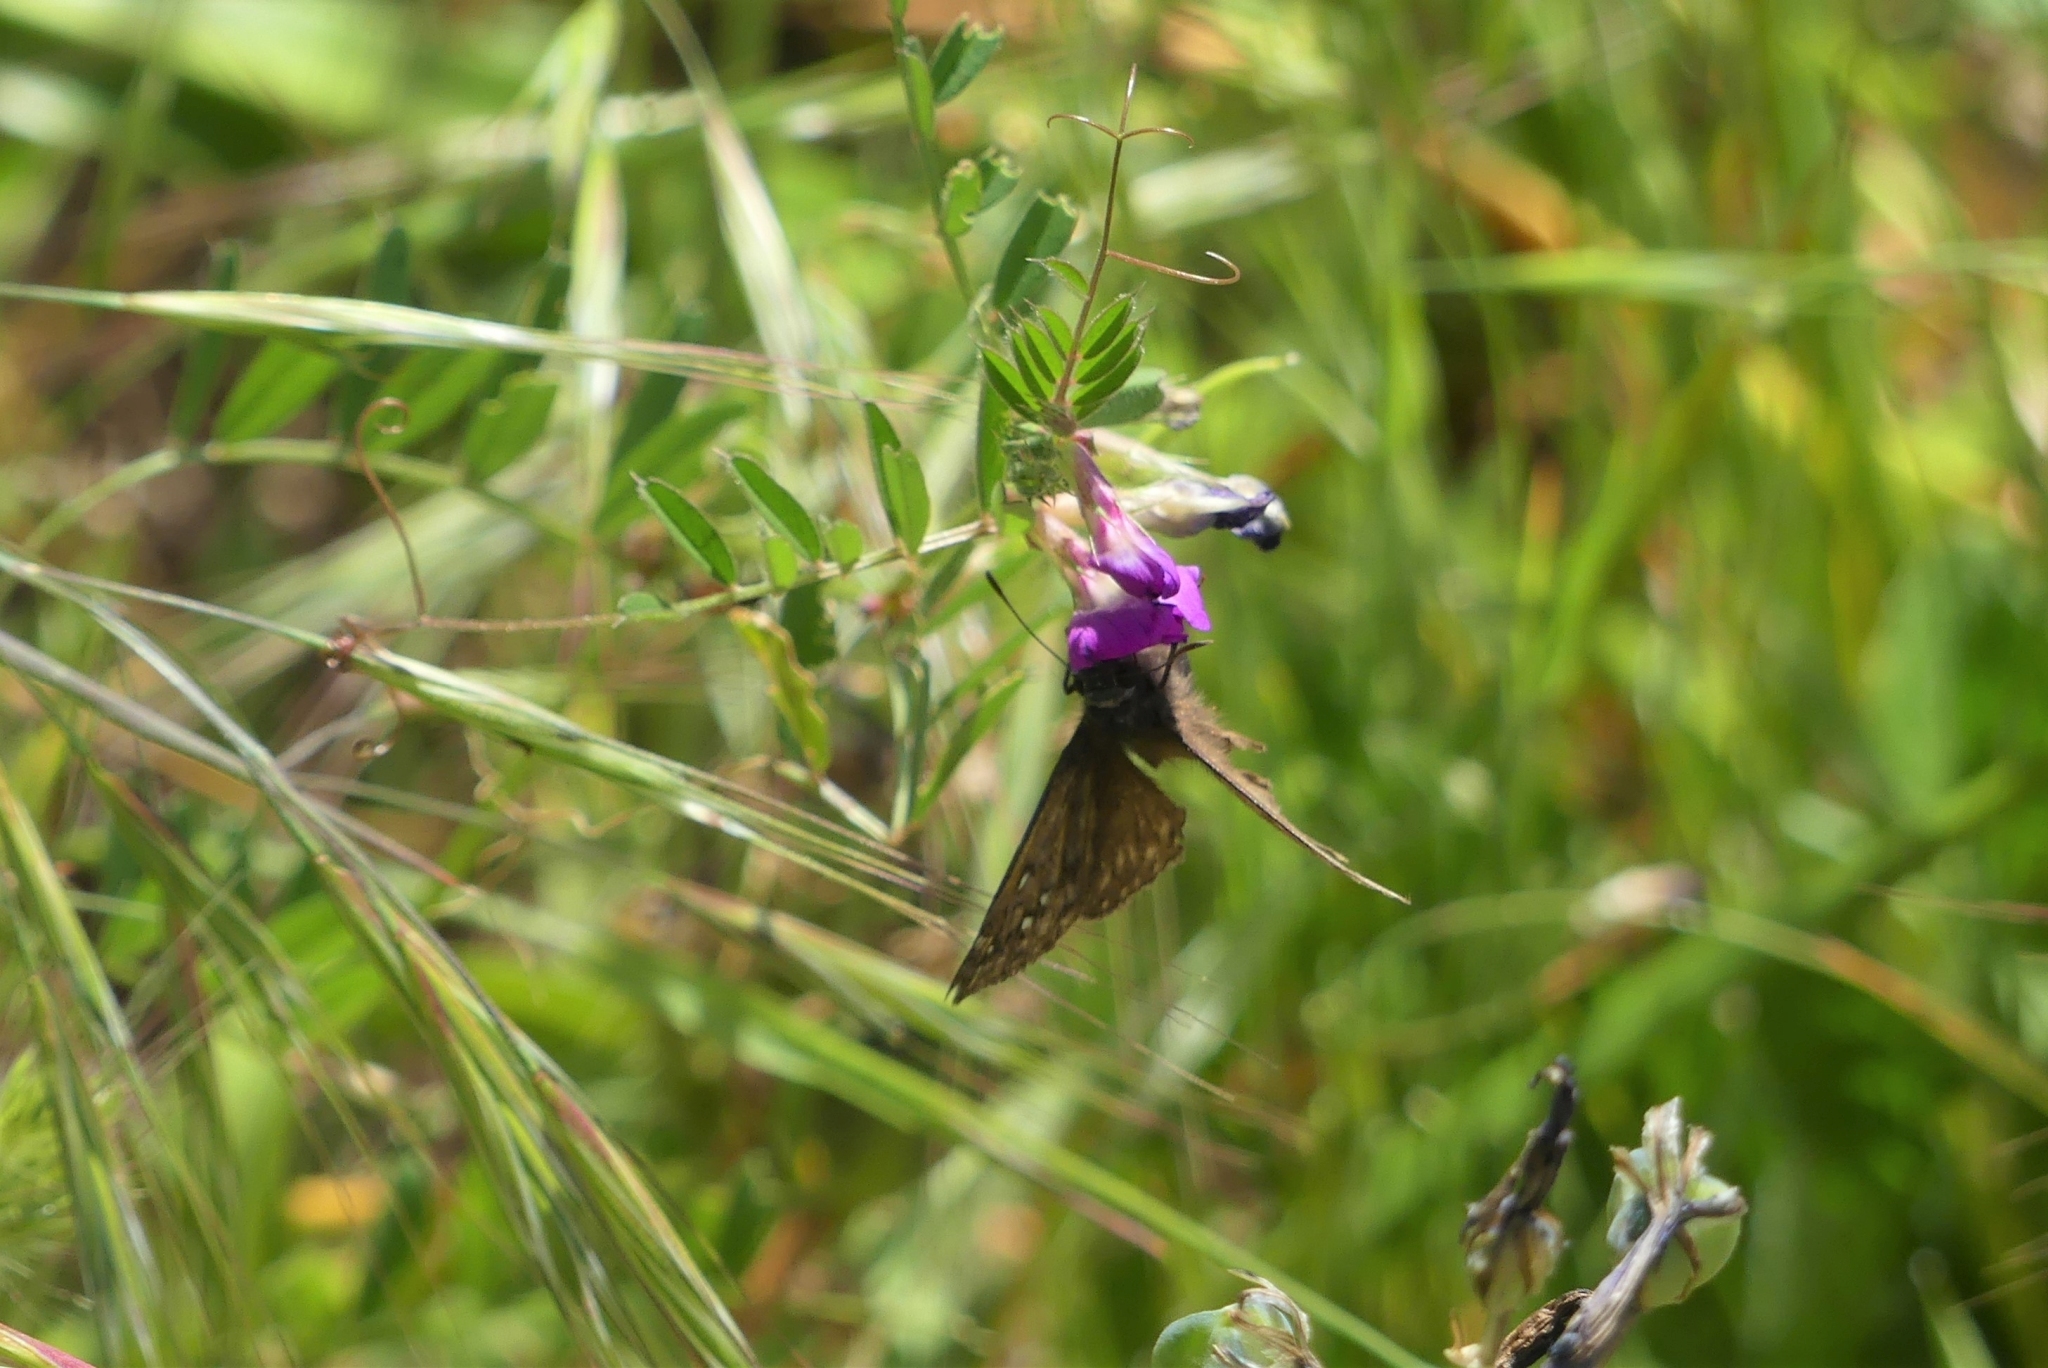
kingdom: Animalia
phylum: Arthropoda
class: Insecta
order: Lepidoptera
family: Hesperiidae
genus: Erynnis
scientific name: Erynnis propertius
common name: Propertius duskywing
